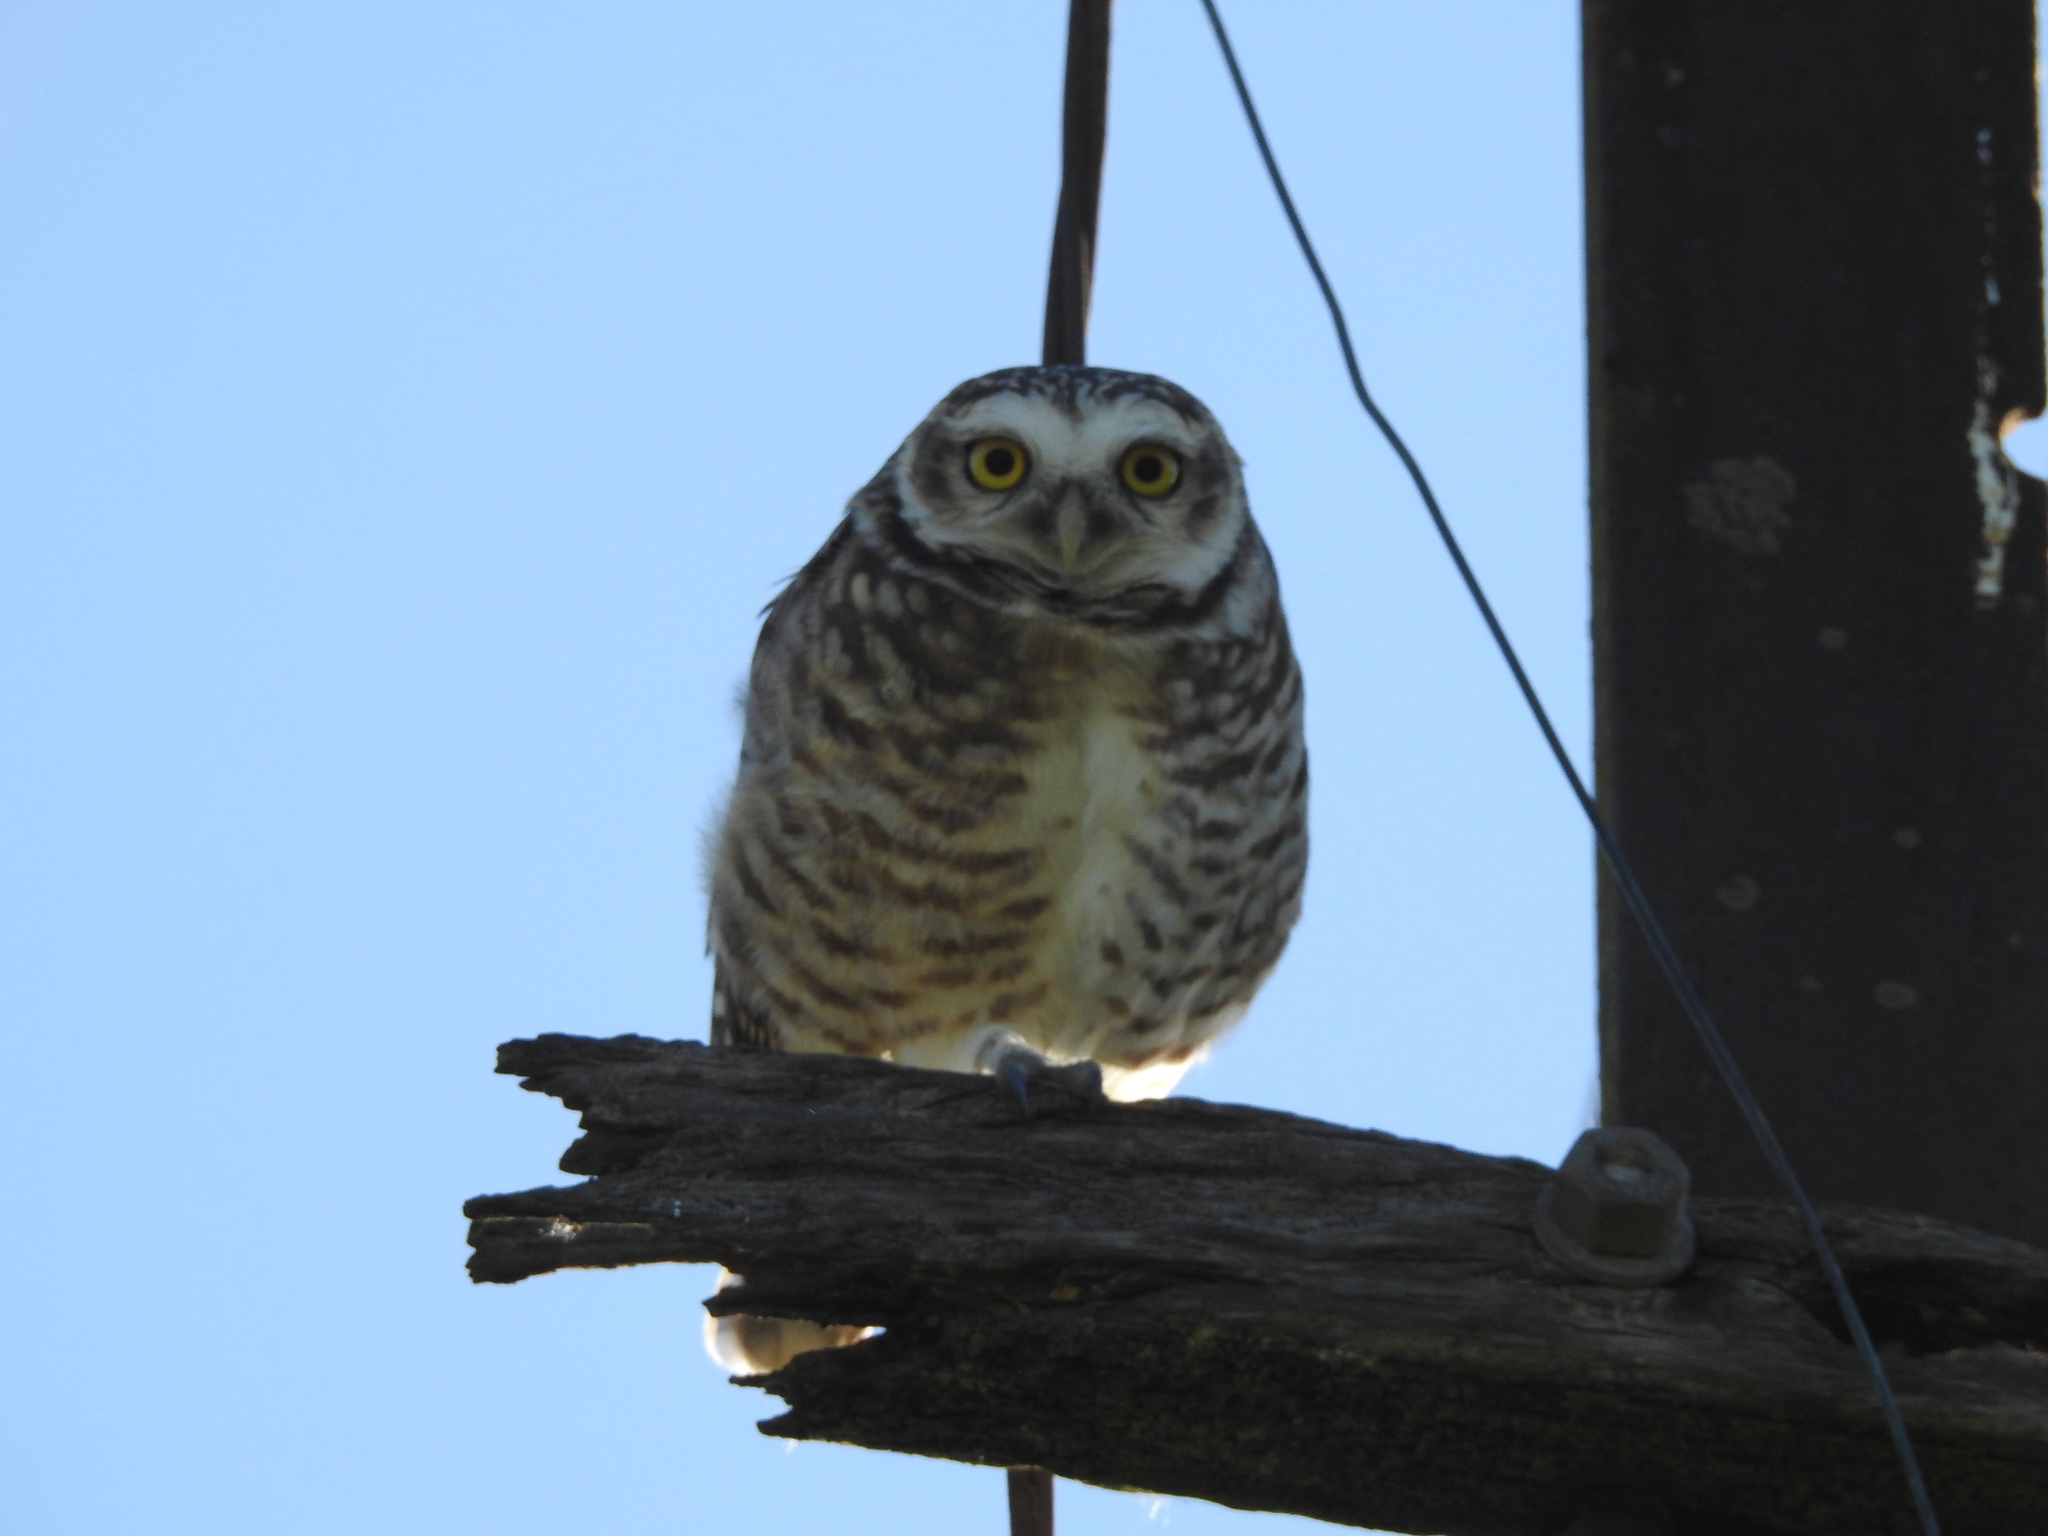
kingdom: Animalia
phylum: Chordata
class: Aves
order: Strigiformes
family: Strigidae
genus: Athene
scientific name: Athene cunicularia
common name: Burrowing owl
